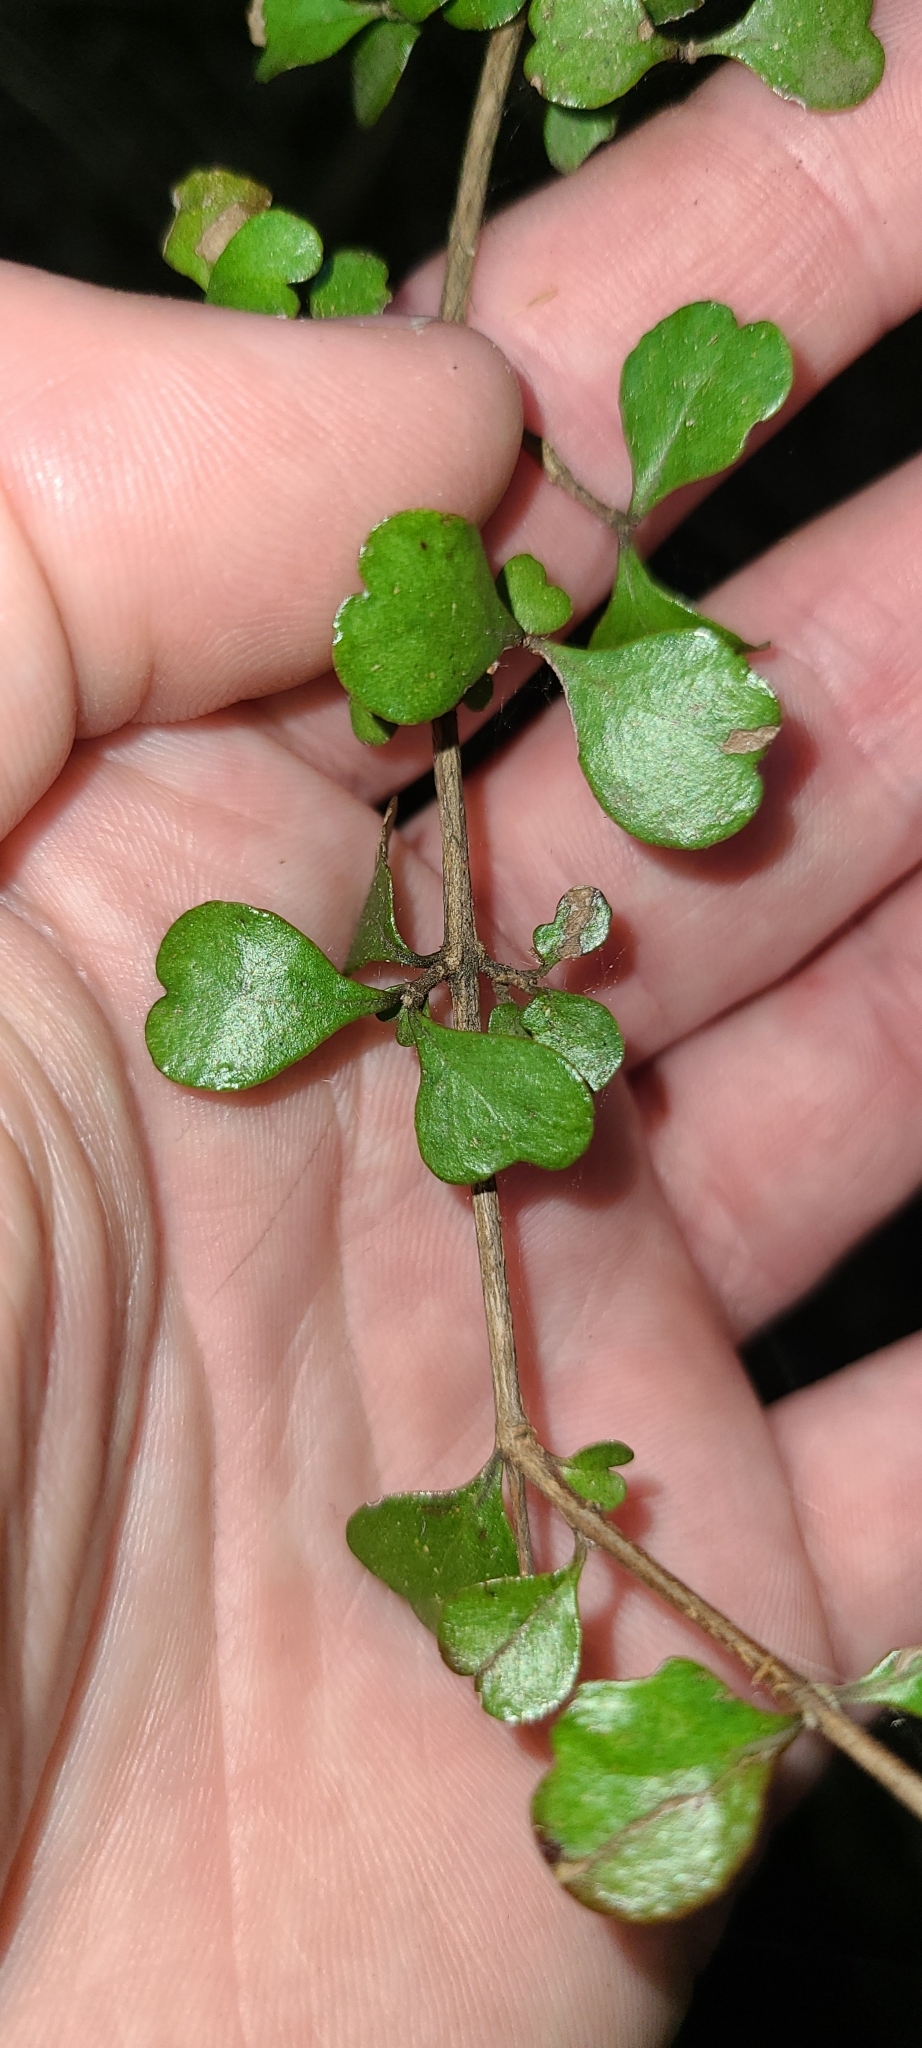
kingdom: Plantae
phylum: Tracheophyta
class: Magnoliopsida
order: Myrtales
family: Myrtaceae
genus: Lophomyrtus
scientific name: Lophomyrtus obcordata
